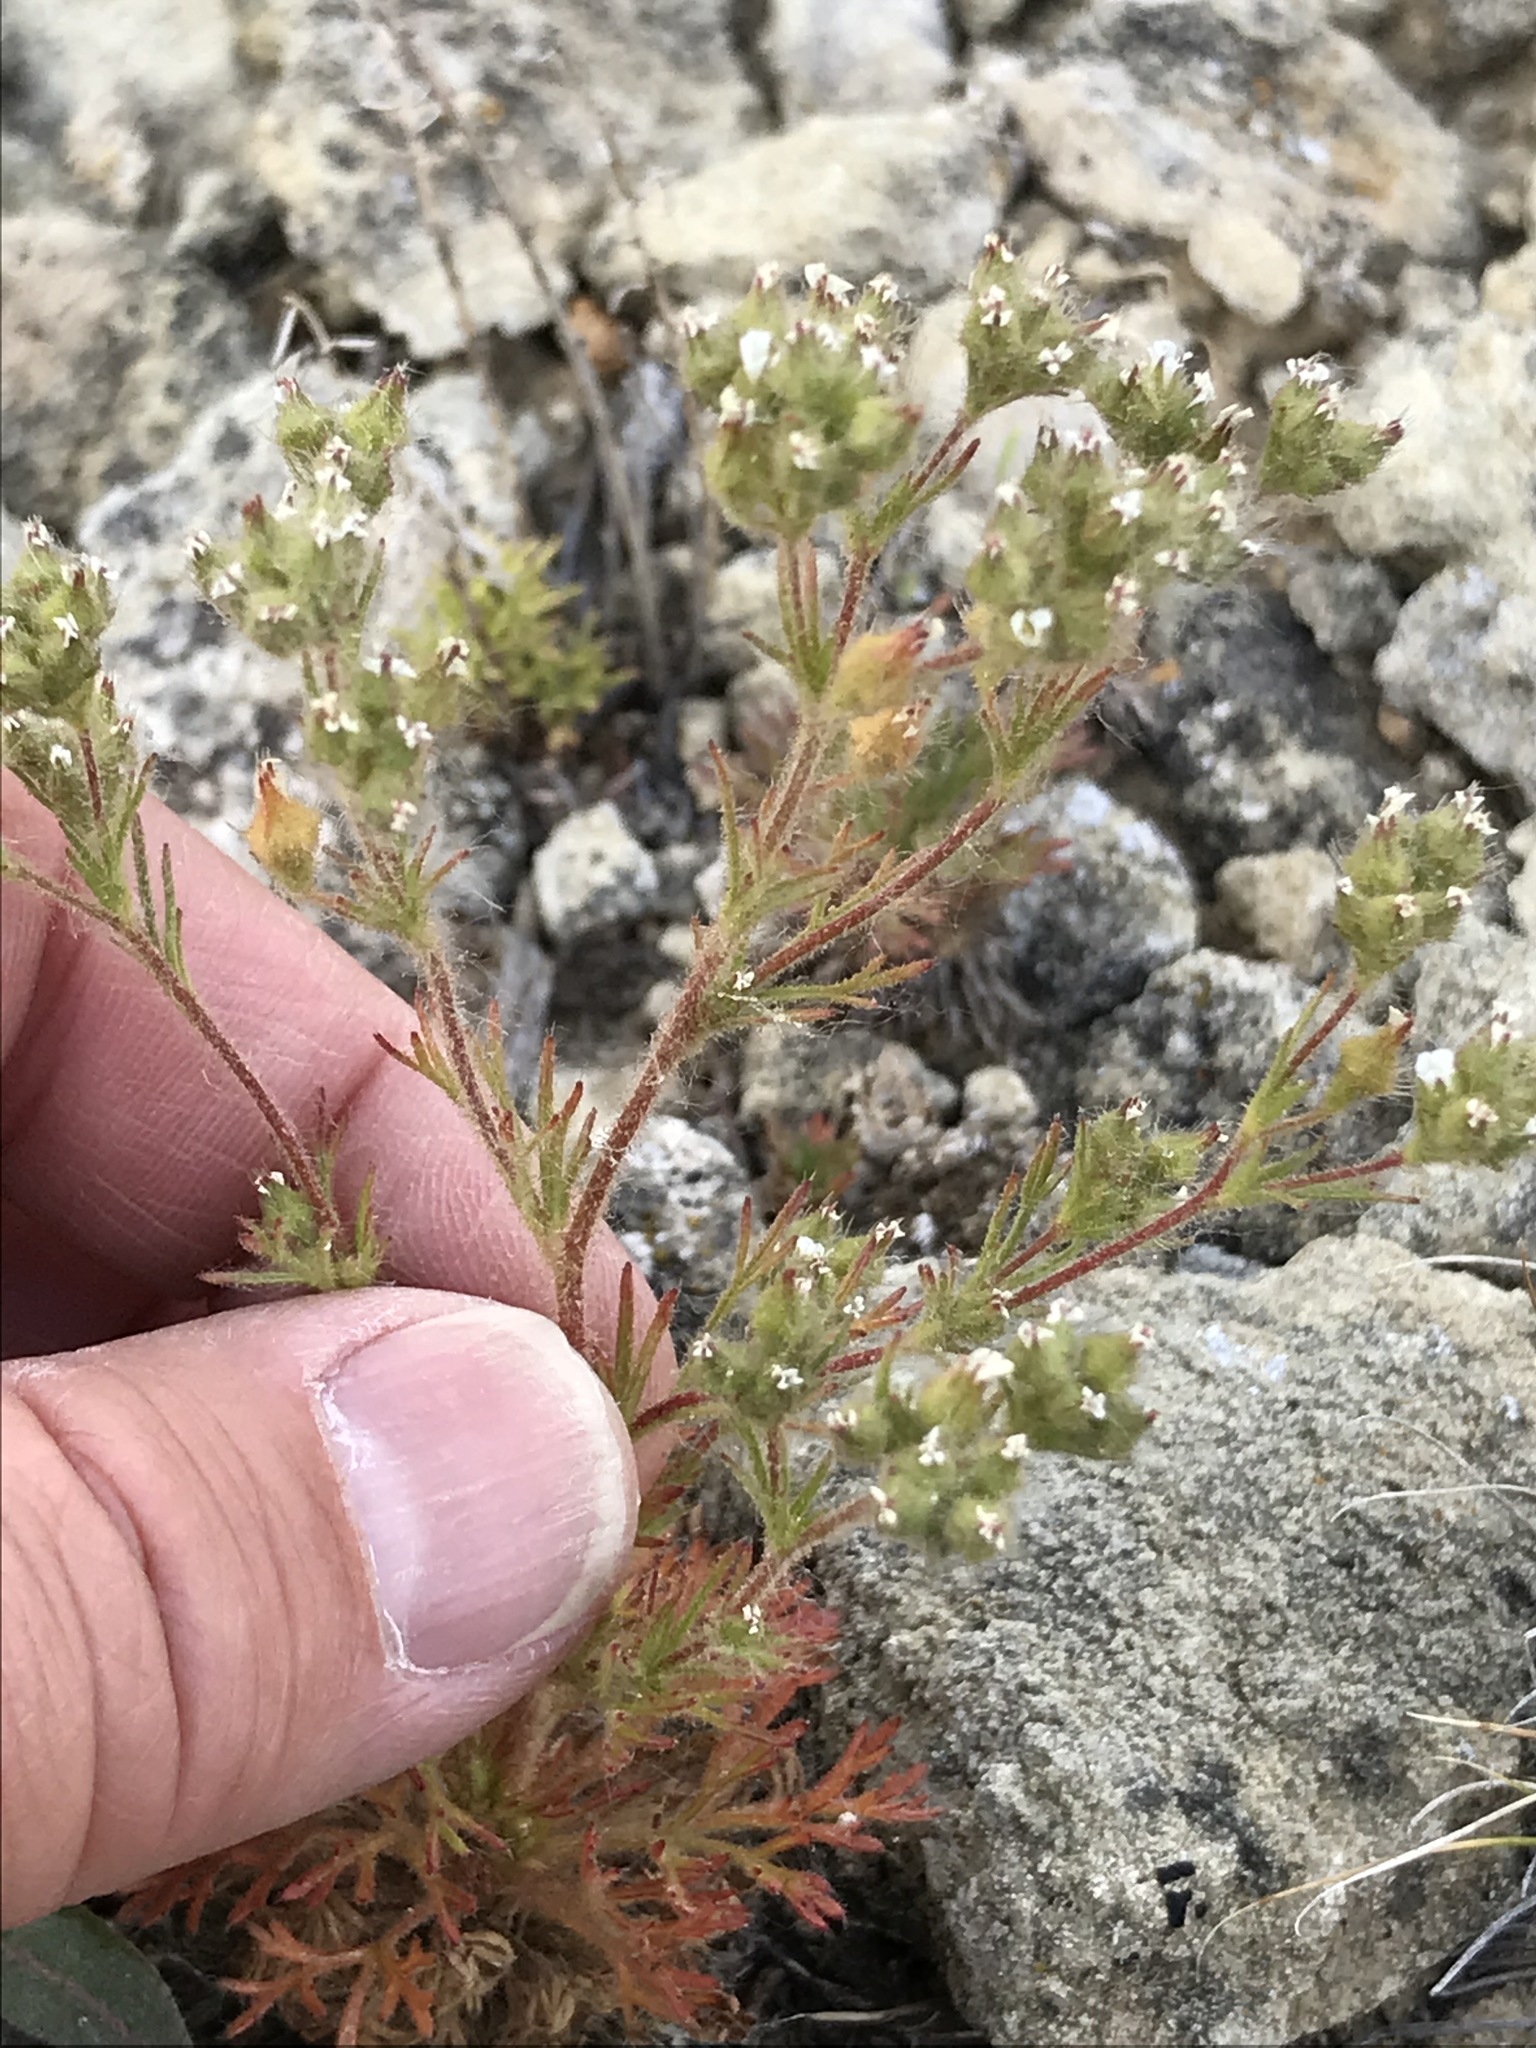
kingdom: Plantae
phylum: Tracheophyta
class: Magnoliopsida
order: Rosales
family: Rosaceae
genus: Chamaerhodos
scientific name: Chamaerhodos erecta
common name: American chamaerhodos
